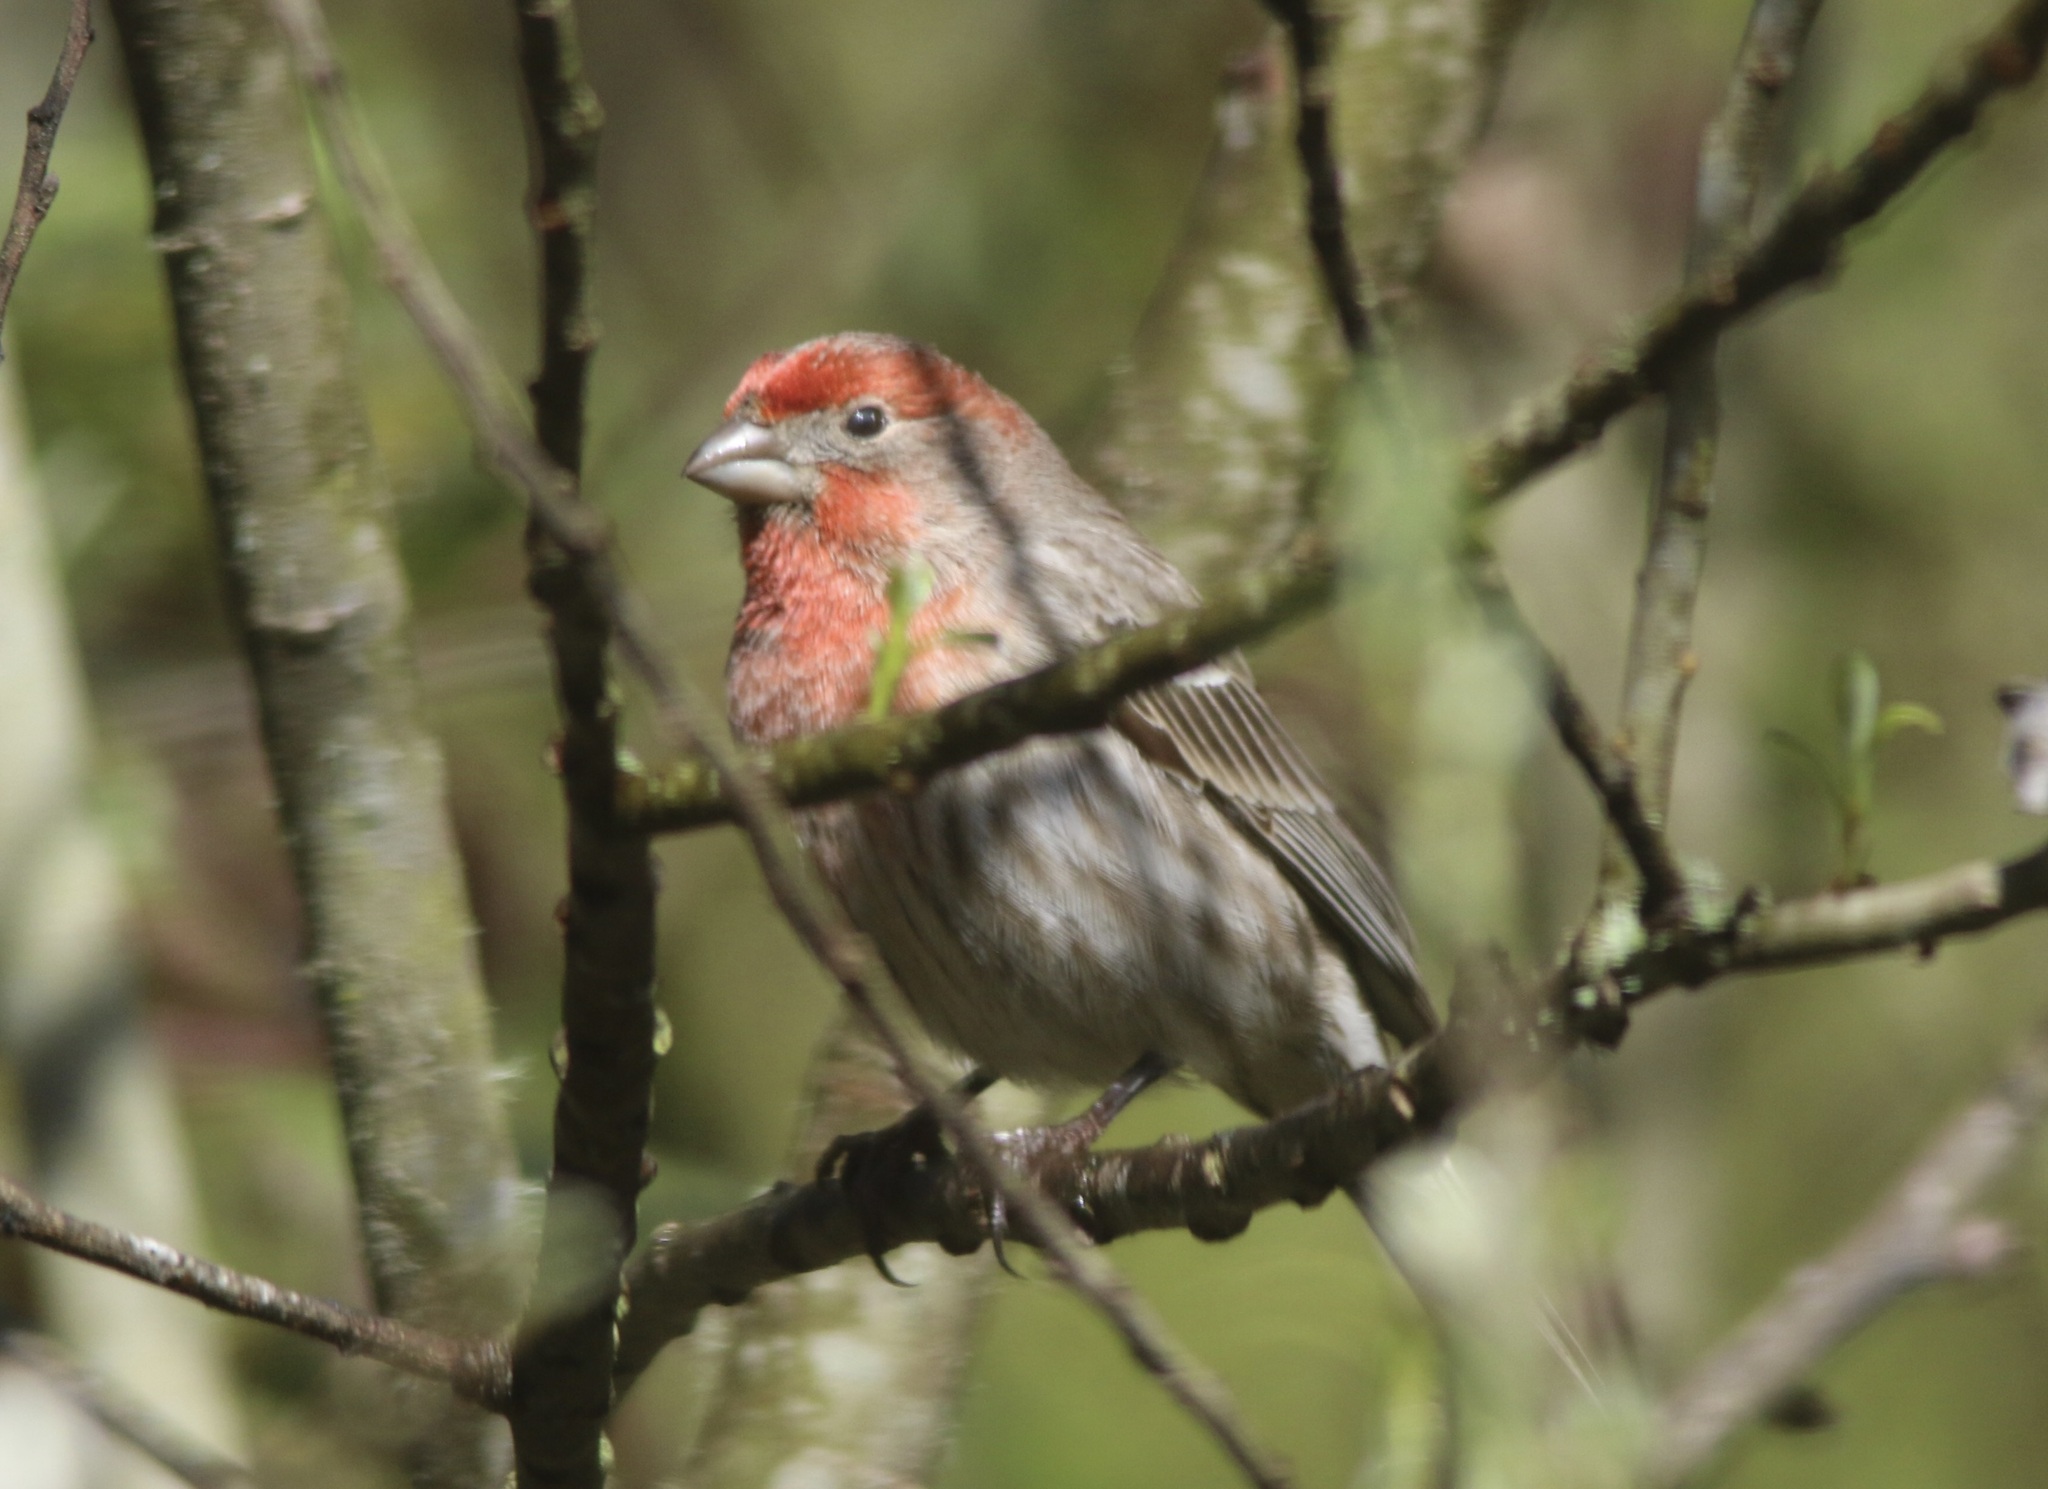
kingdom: Animalia
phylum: Chordata
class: Aves
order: Passeriformes
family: Fringillidae
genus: Haemorhous
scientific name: Haemorhous mexicanus
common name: House finch
